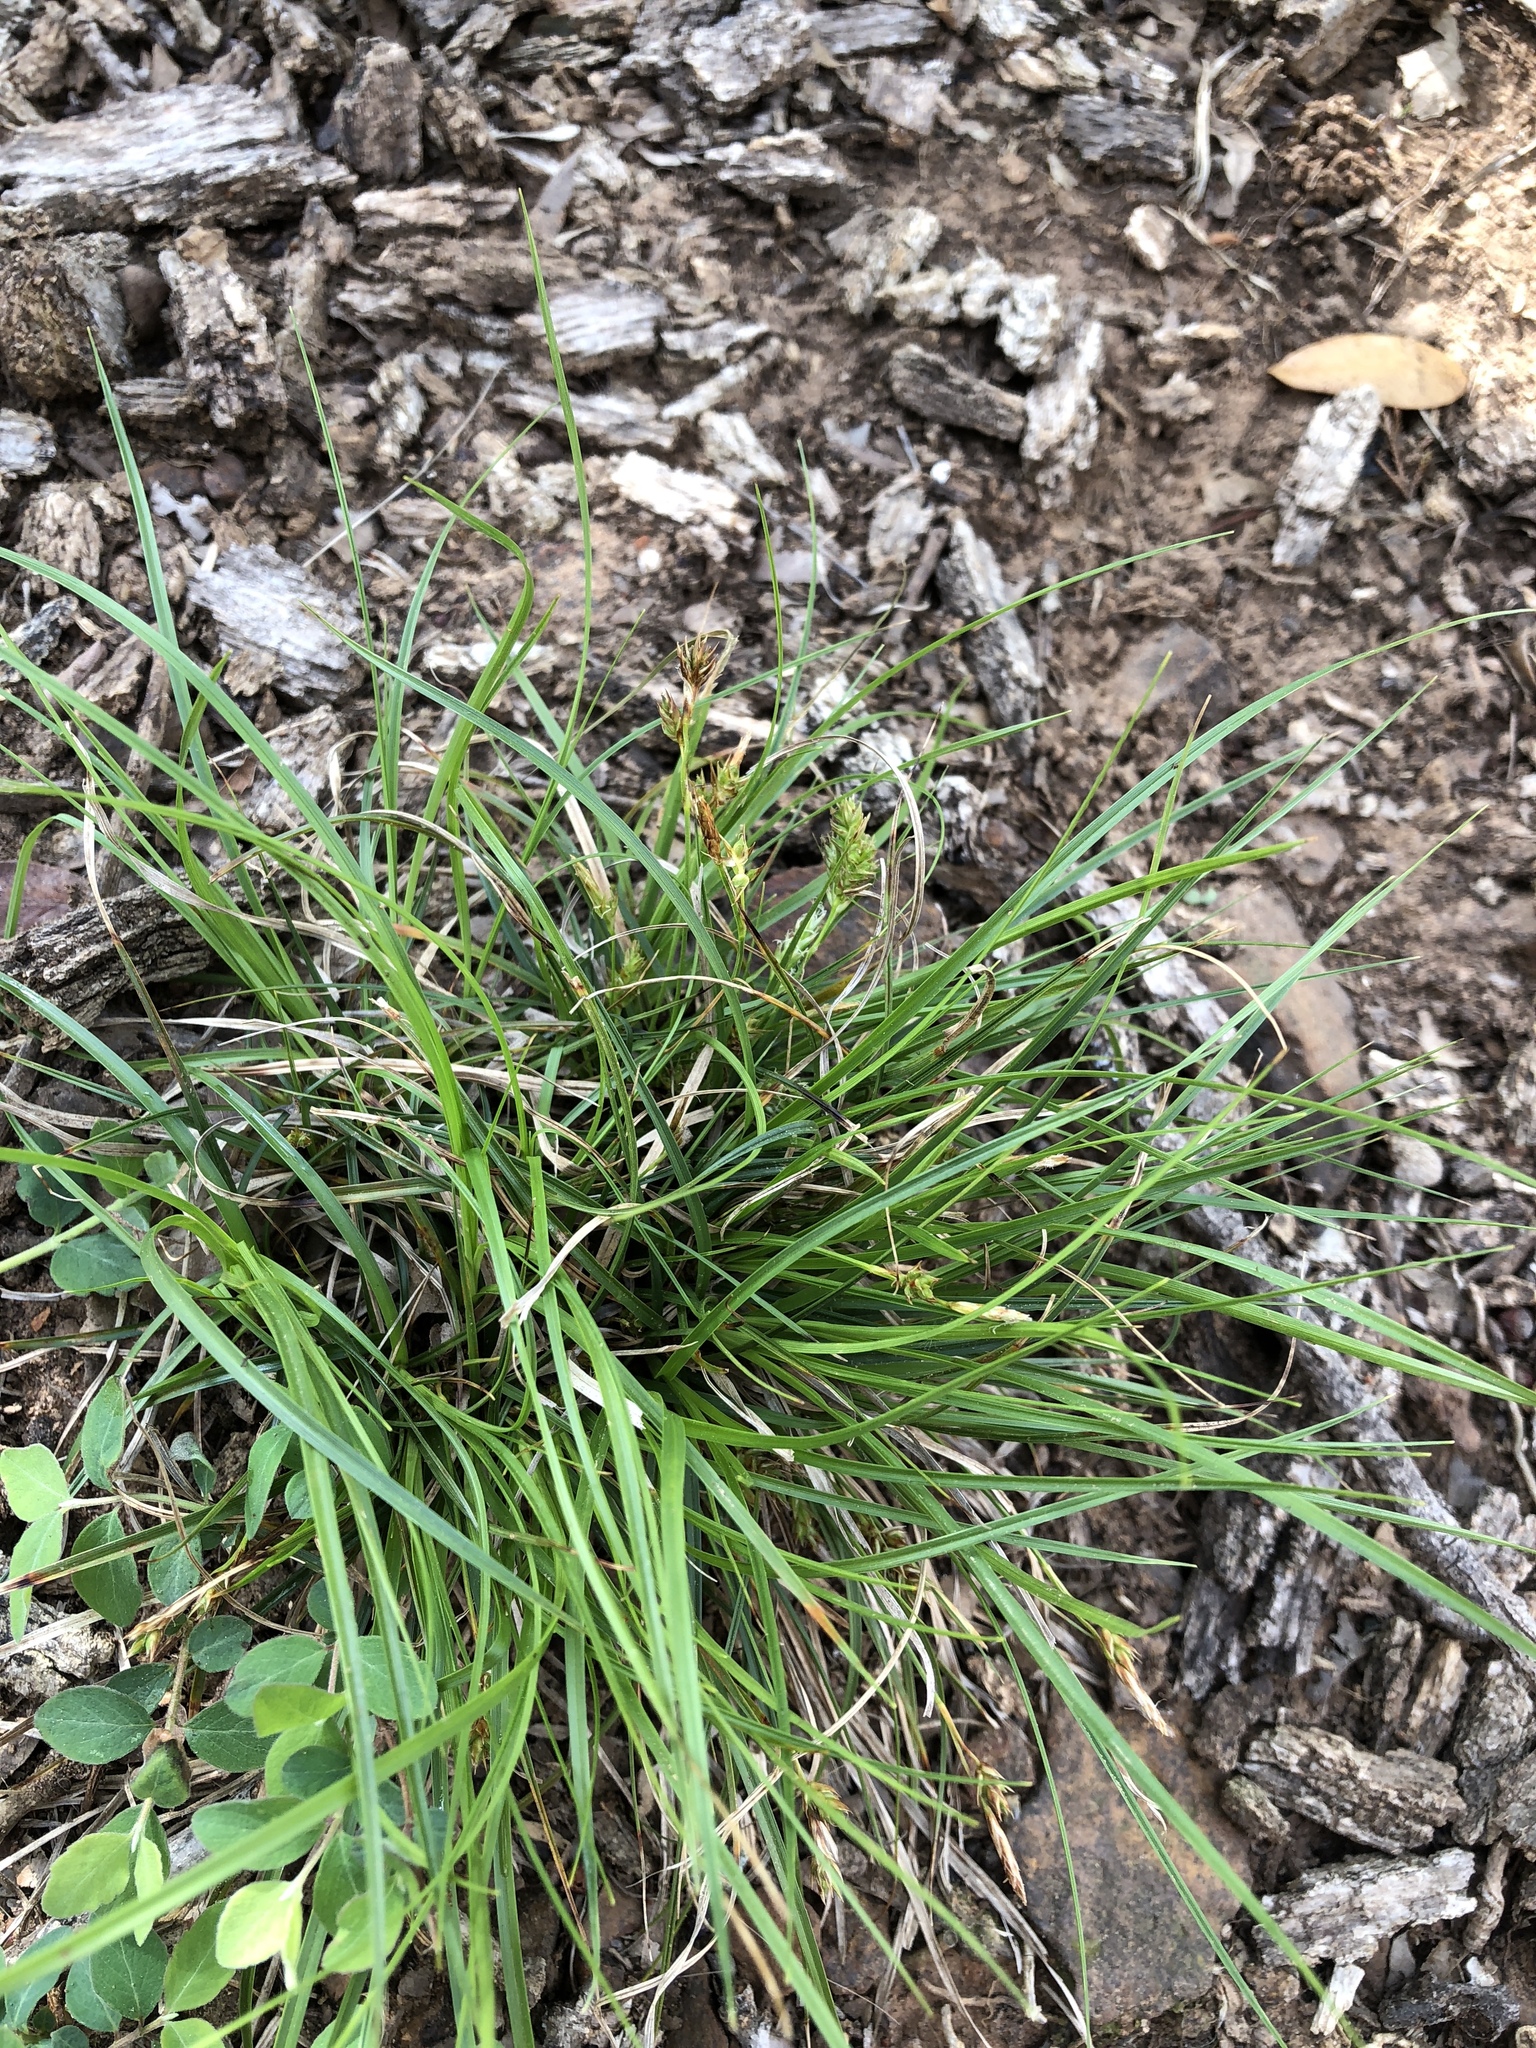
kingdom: Plantae
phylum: Tracheophyta
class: Liliopsida
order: Poales
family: Cyperaceae
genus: Carex
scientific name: Carex planostachys
